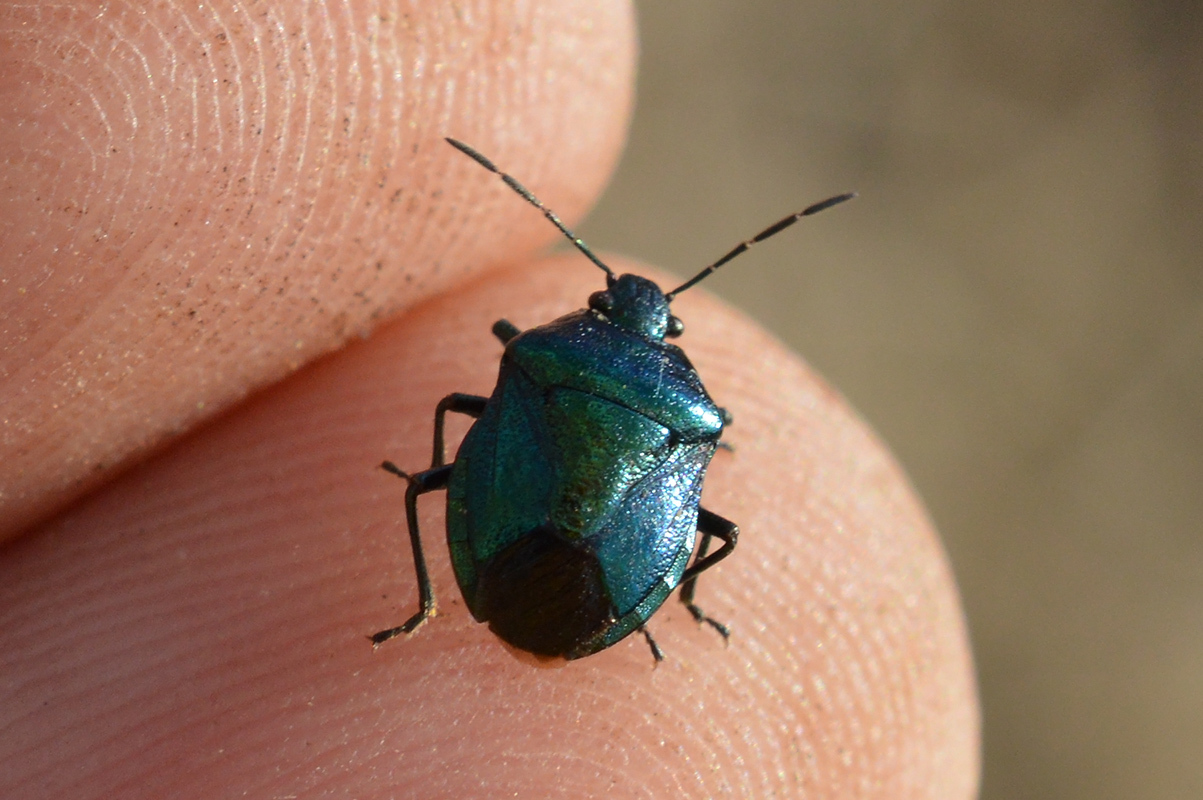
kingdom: Animalia
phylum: Arthropoda
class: Insecta
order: Hemiptera
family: Pentatomidae
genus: Zicrona
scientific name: Zicrona caerulea
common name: Blue shieldbug
